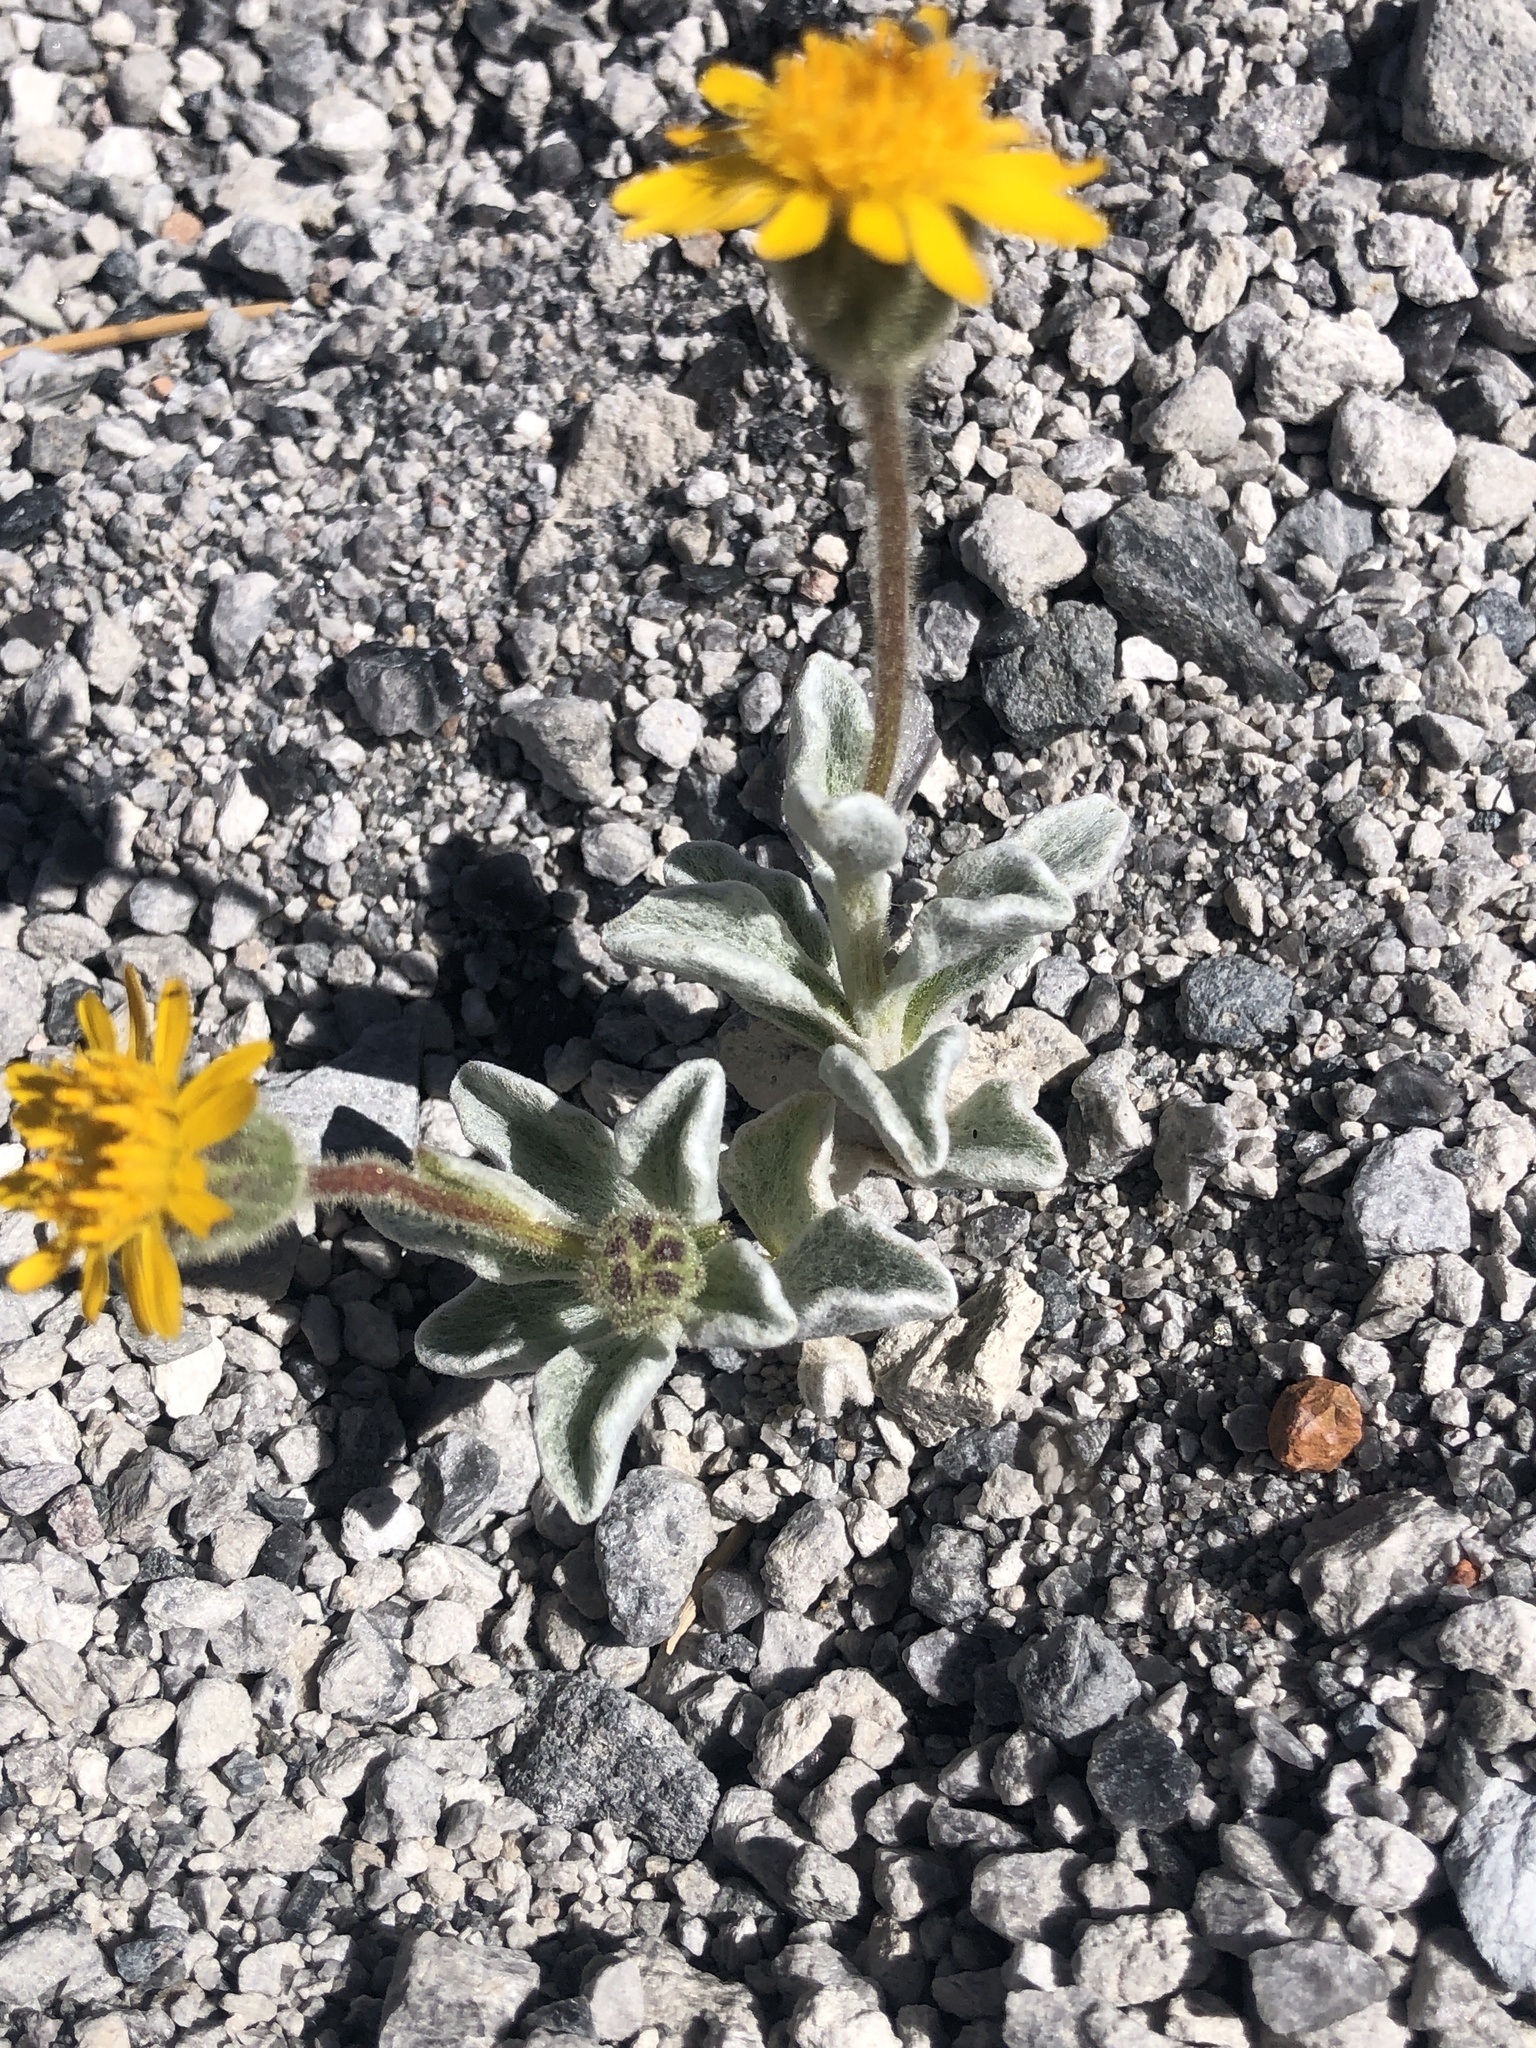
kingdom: Plantae
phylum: Tracheophyta
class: Magnoliopsida
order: Asterales
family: Asteraceae
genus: Hulsea
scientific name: Hulsea vestita
